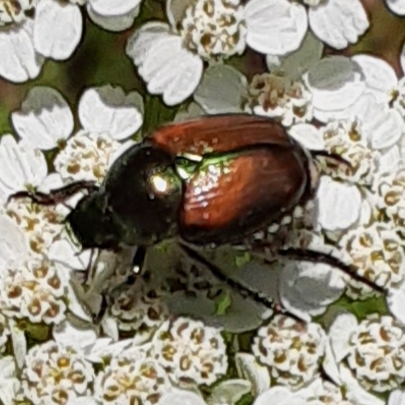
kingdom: Animalia
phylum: Arthropoda
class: Insecta
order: Coleoptera
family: Scarabaeidae
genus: Popillia
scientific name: Popillia japonica
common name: Japanese beetle
